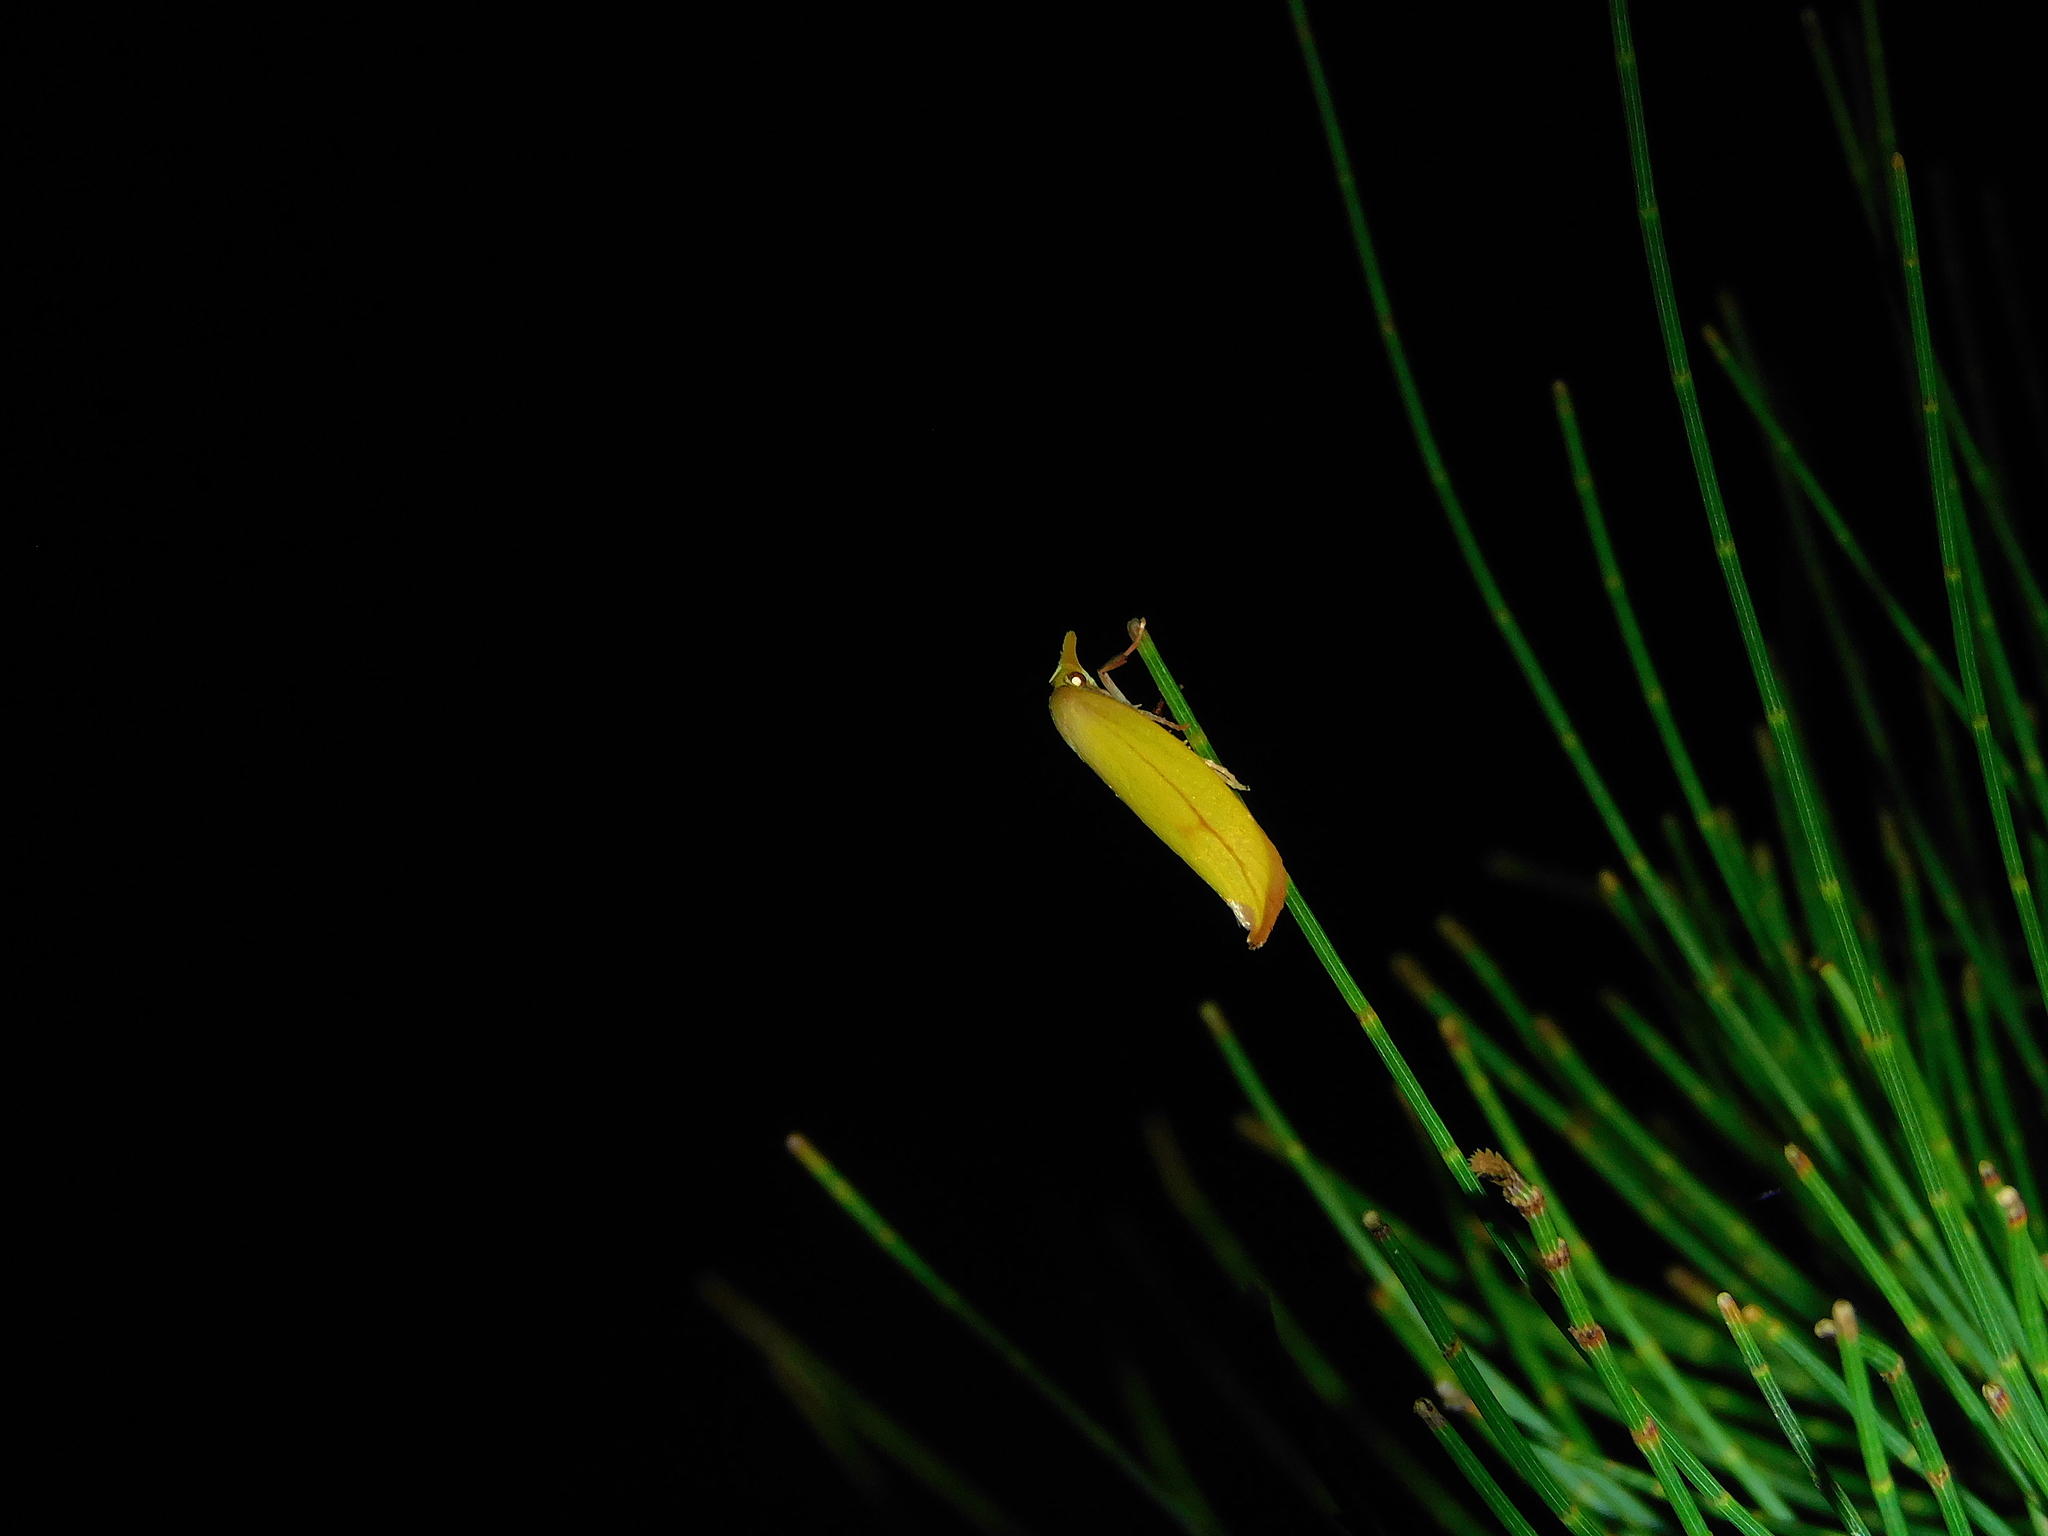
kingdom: Animalia
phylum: Arthropoda
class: Insecta
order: Lepidoptera
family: Oecophoridae
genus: Wingia
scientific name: Wingia aurata
